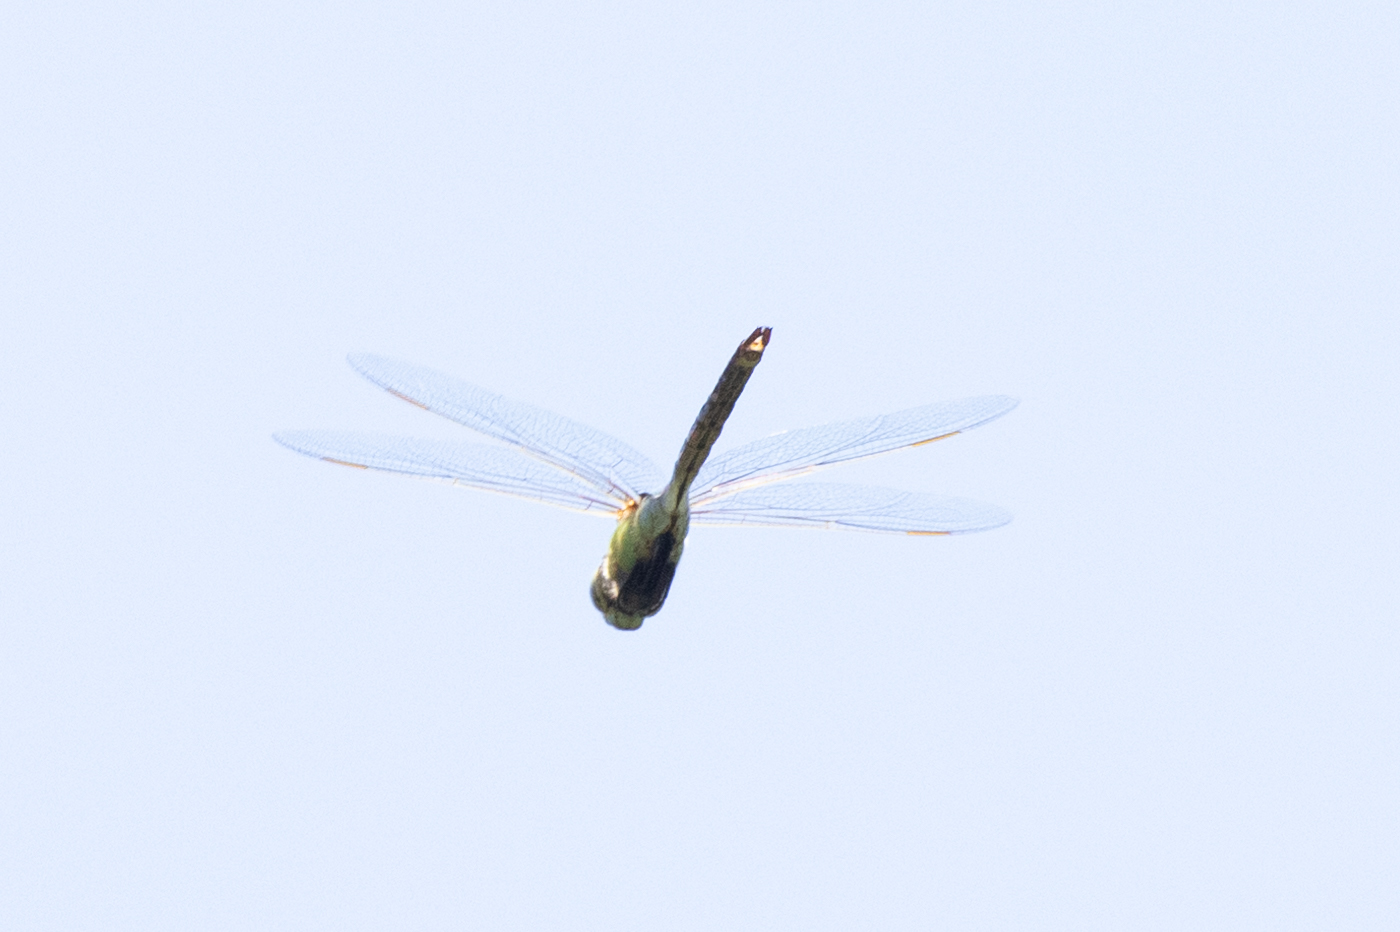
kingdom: Animalia
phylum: Arthropoda
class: Insecta
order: Odonata
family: Aeshnidae
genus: Anax
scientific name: Anax junius
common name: Common green darner
